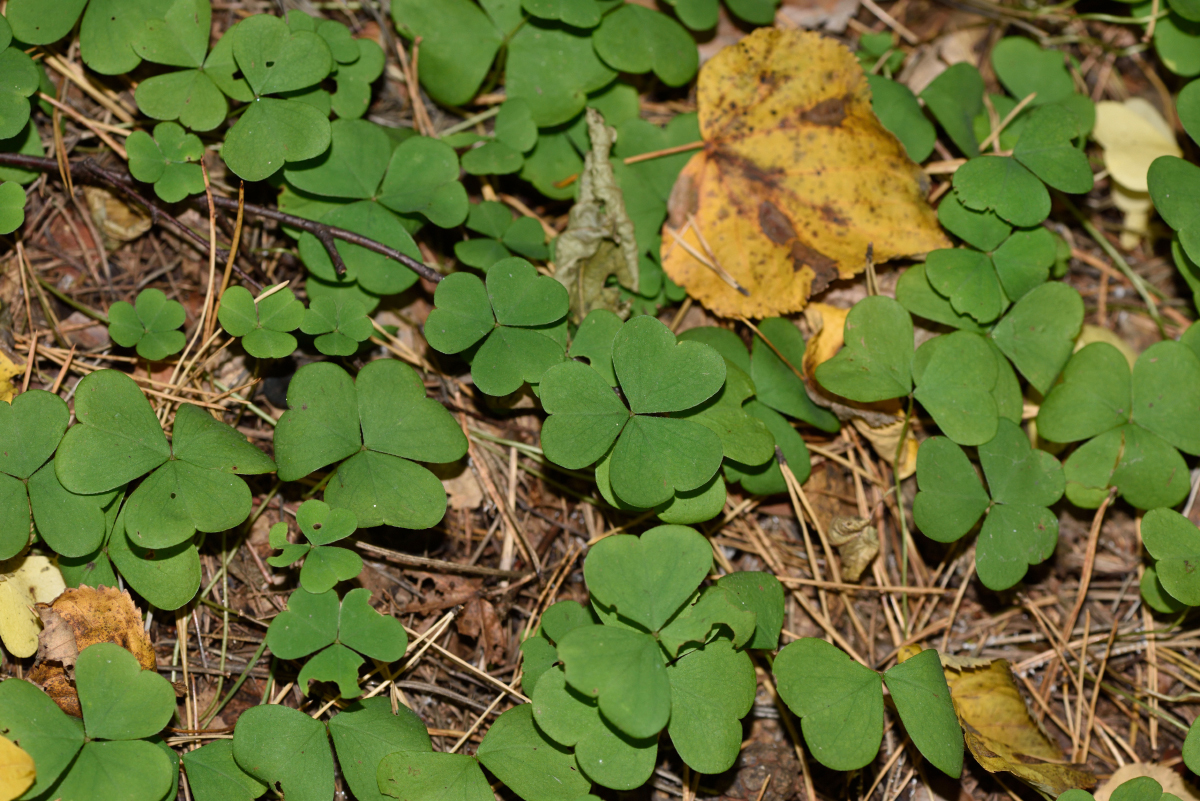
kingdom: Plantae
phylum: Tracheophyta
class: Magnoliopsida
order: Oxalidales
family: Oxalidaceae
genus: Oxalis
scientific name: Oxalis acetosella
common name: Wood-sorrel
